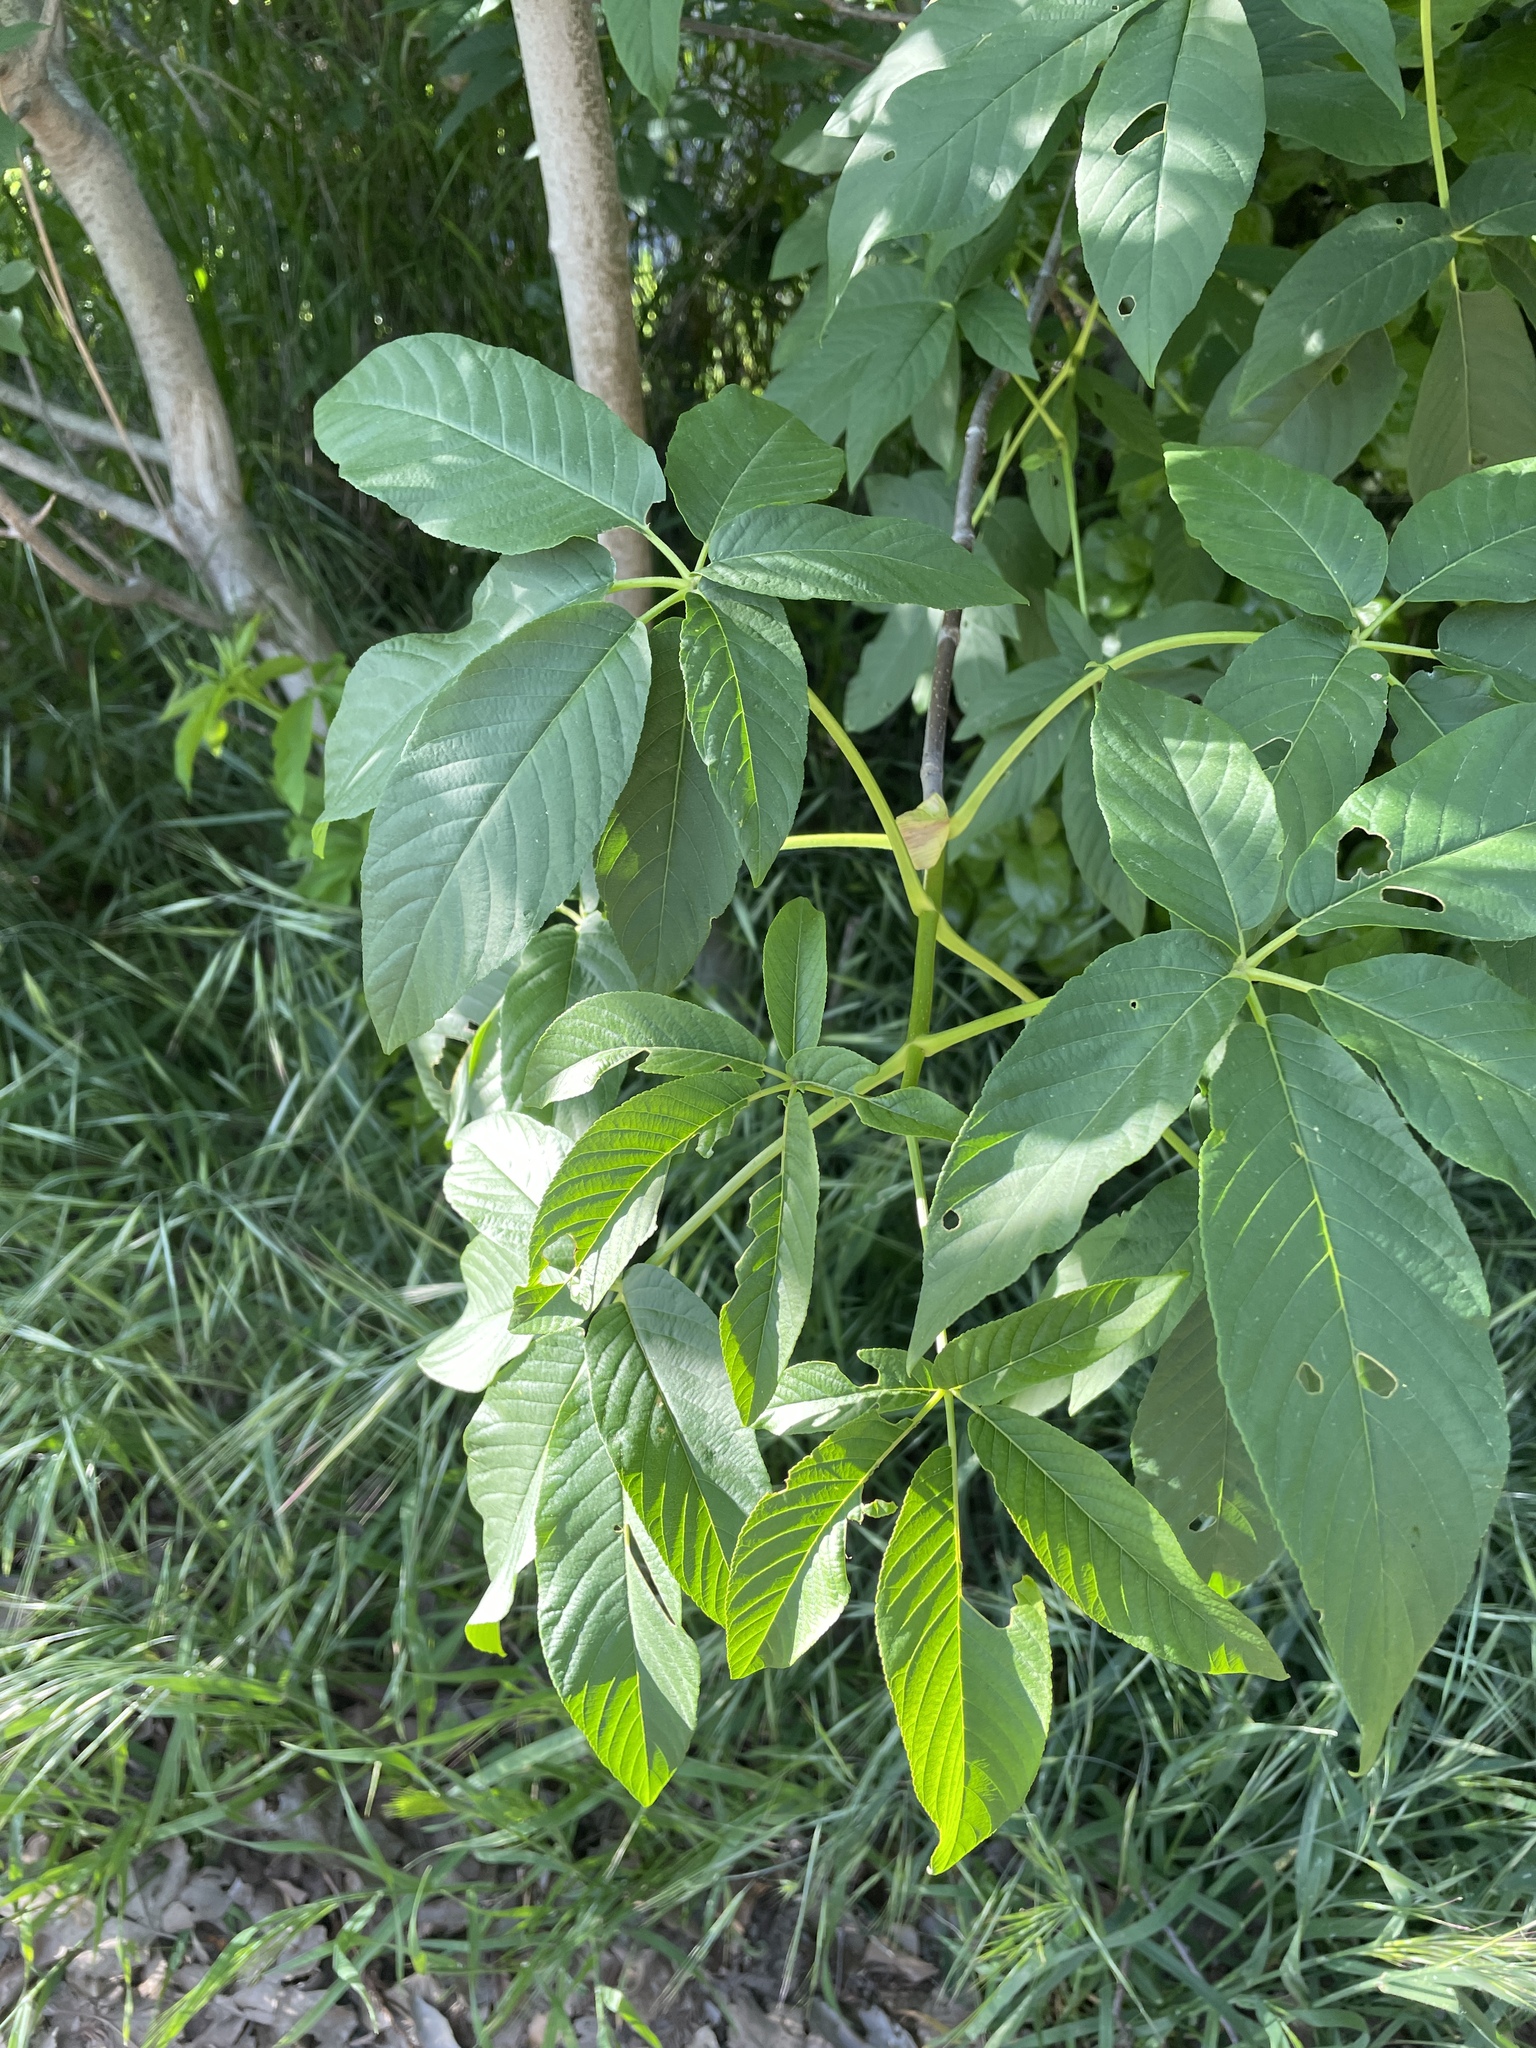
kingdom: Plantae
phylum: Tracheophyta
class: Magnoliopsida
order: Sapindales
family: Sapindaceae
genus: Aesculus
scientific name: Aesculus californica
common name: California buckeye
